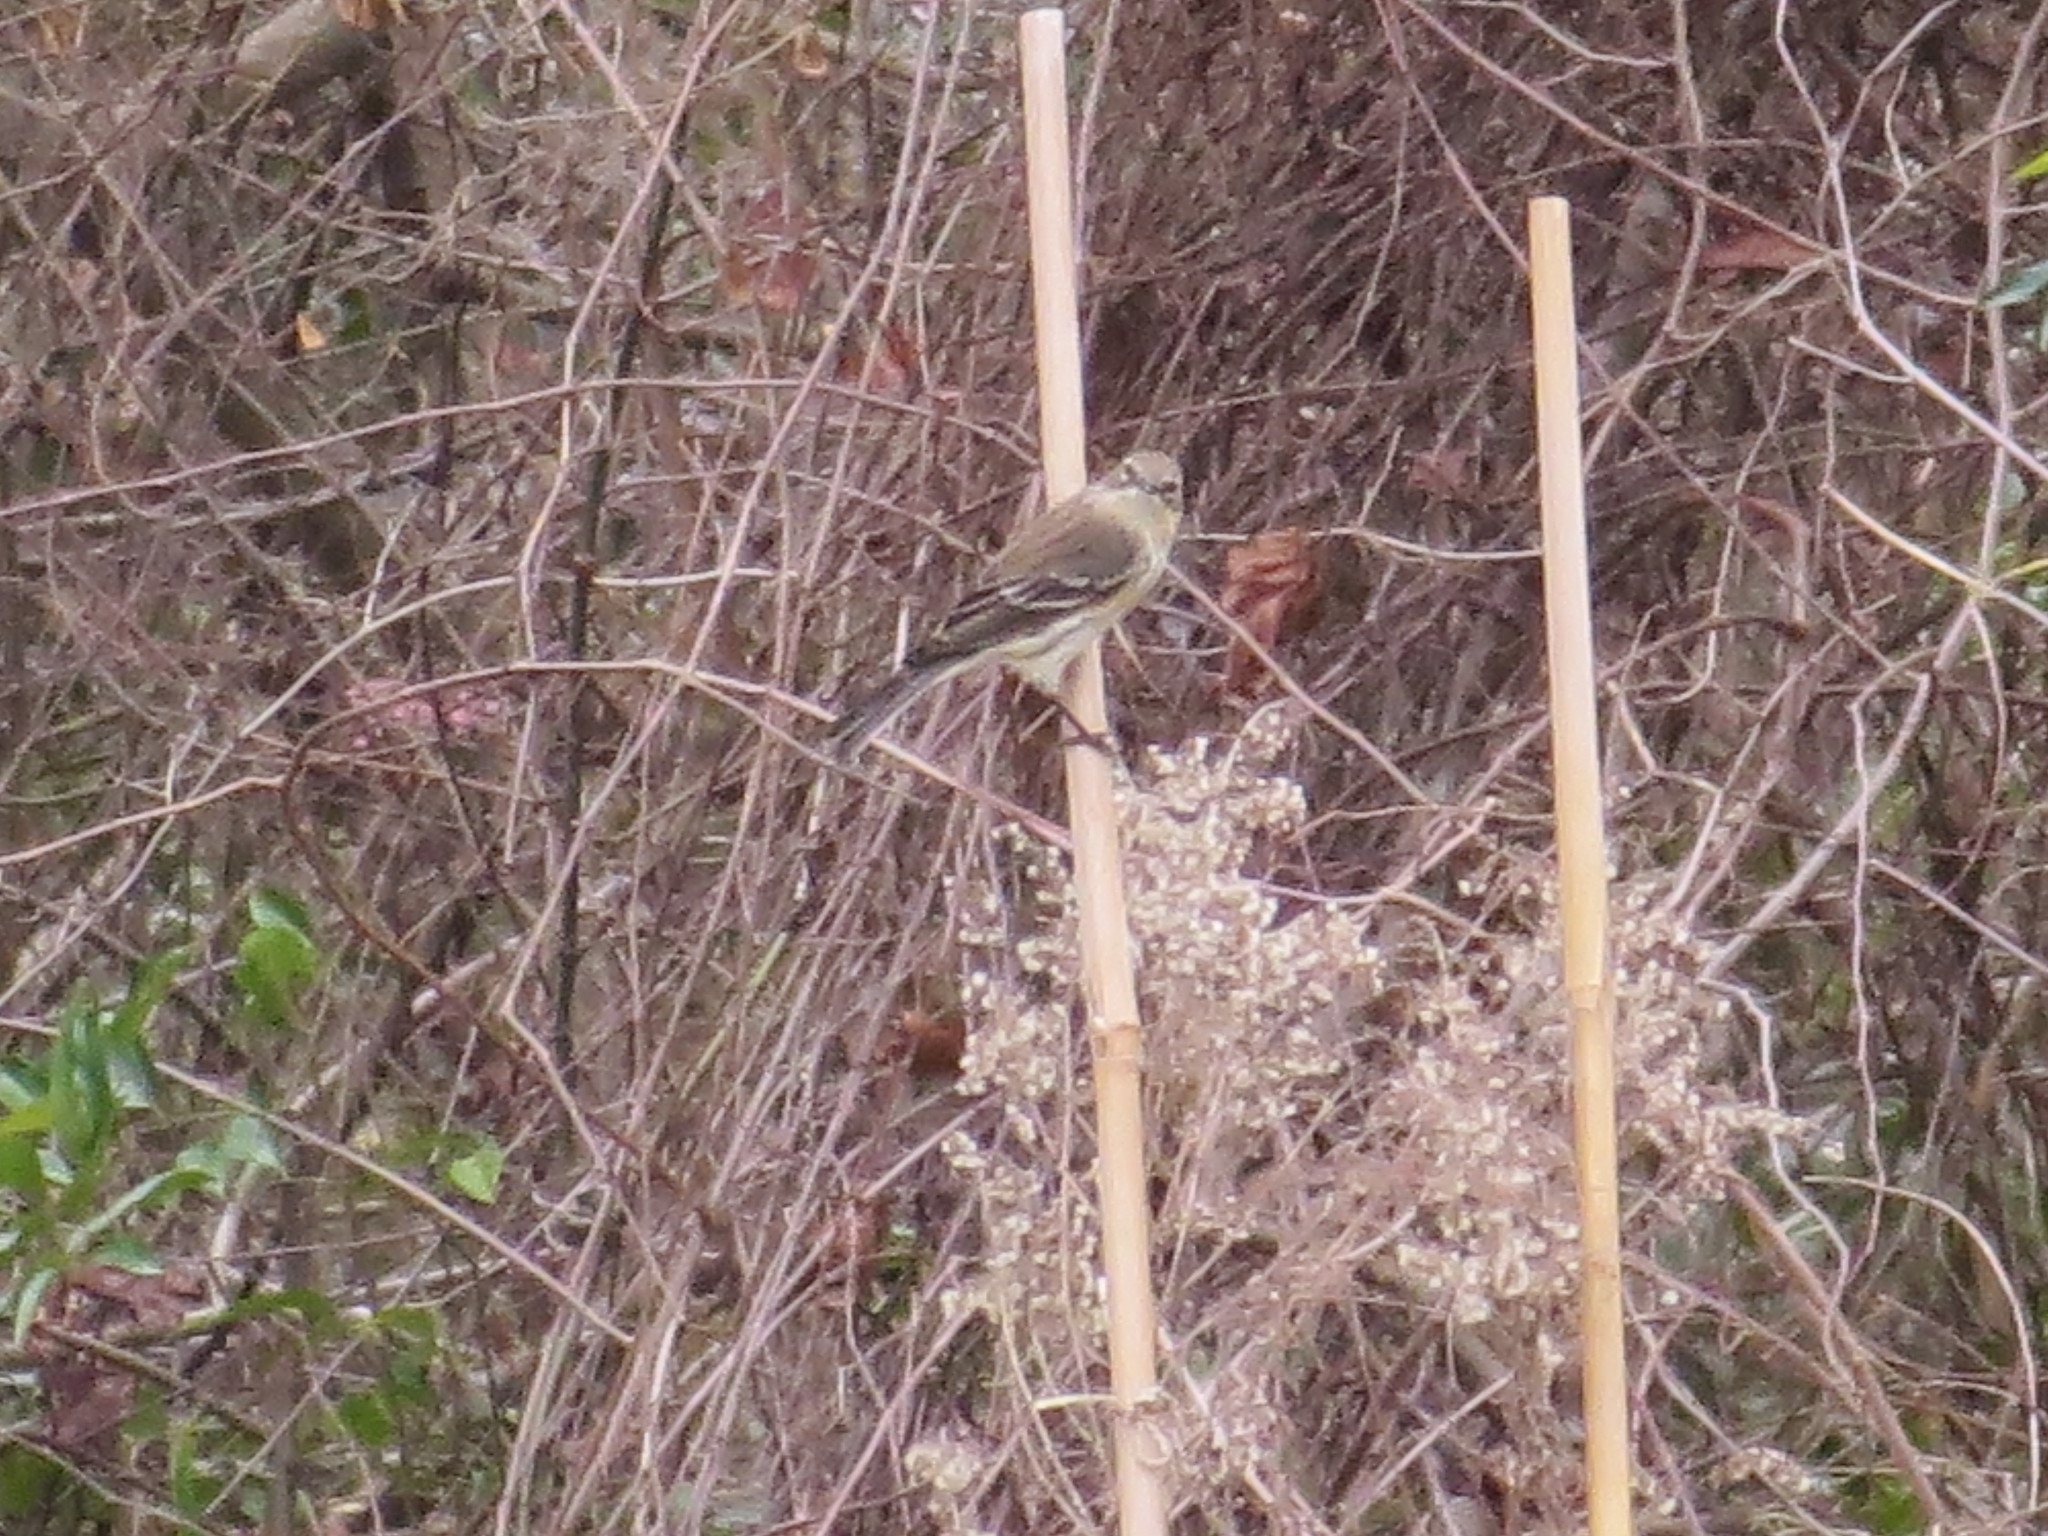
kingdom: Animalia
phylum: Chordata
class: Aves
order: Passeriformes
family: Parulidae
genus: Setophaga
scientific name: Setophaga coronata
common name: Myrtle warbler
